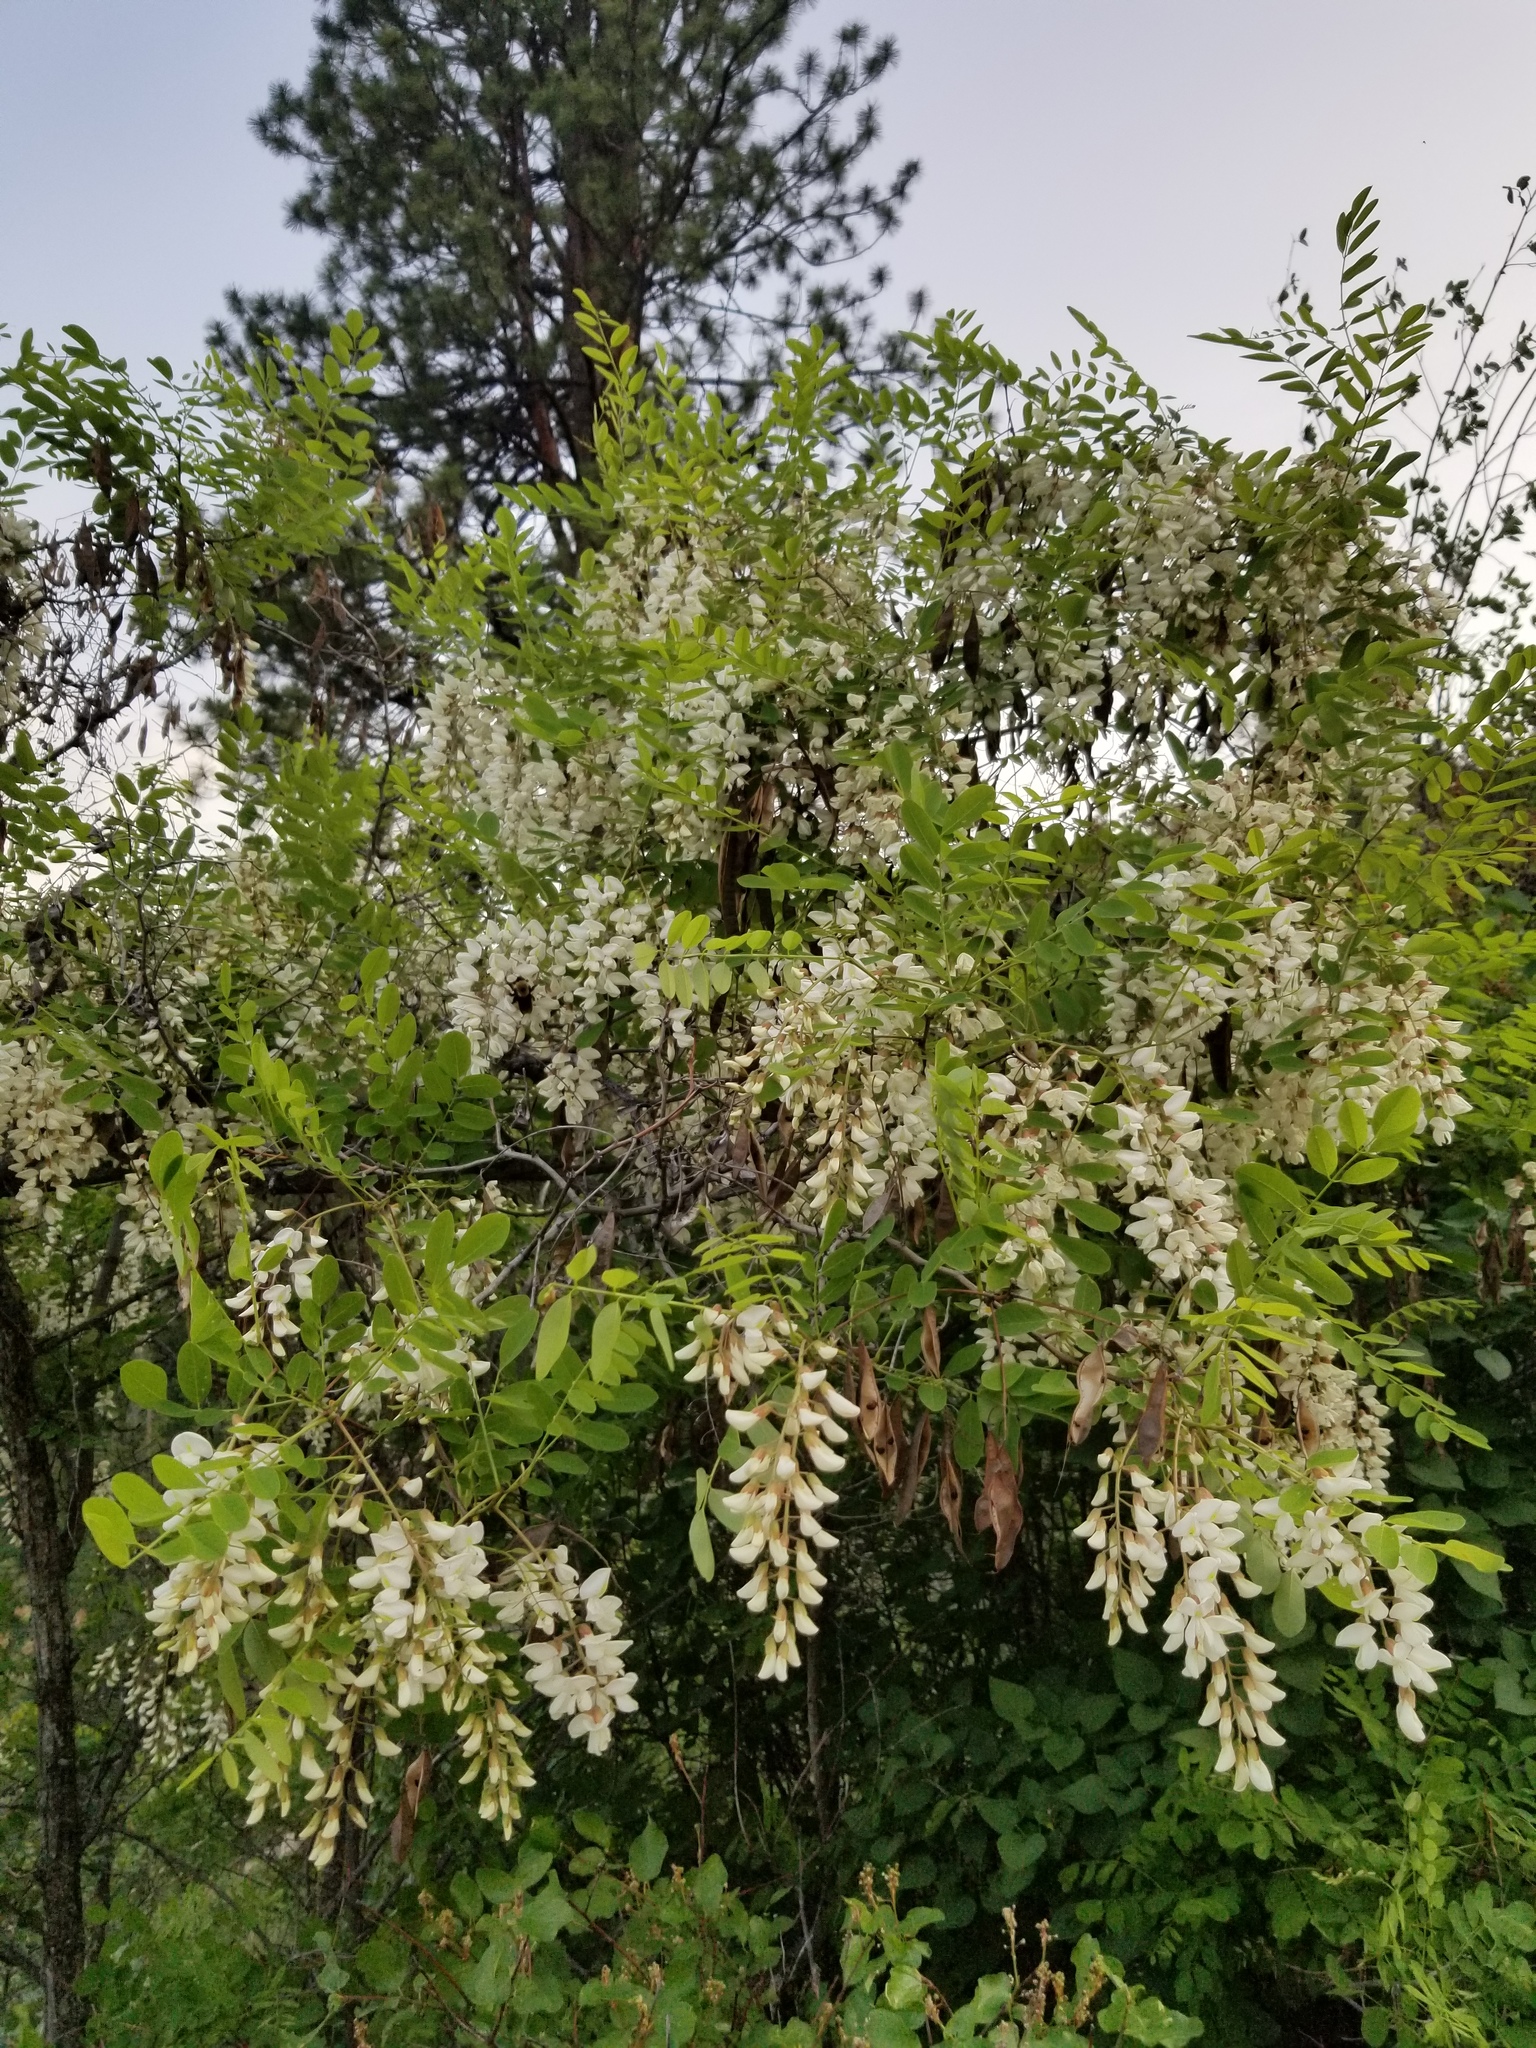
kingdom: Plantae
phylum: Tracheophyta
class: Magnoliopsida
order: Fabales
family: Fabaceae
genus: Robinia
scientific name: Robinia pseudoacacia
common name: Black locust
